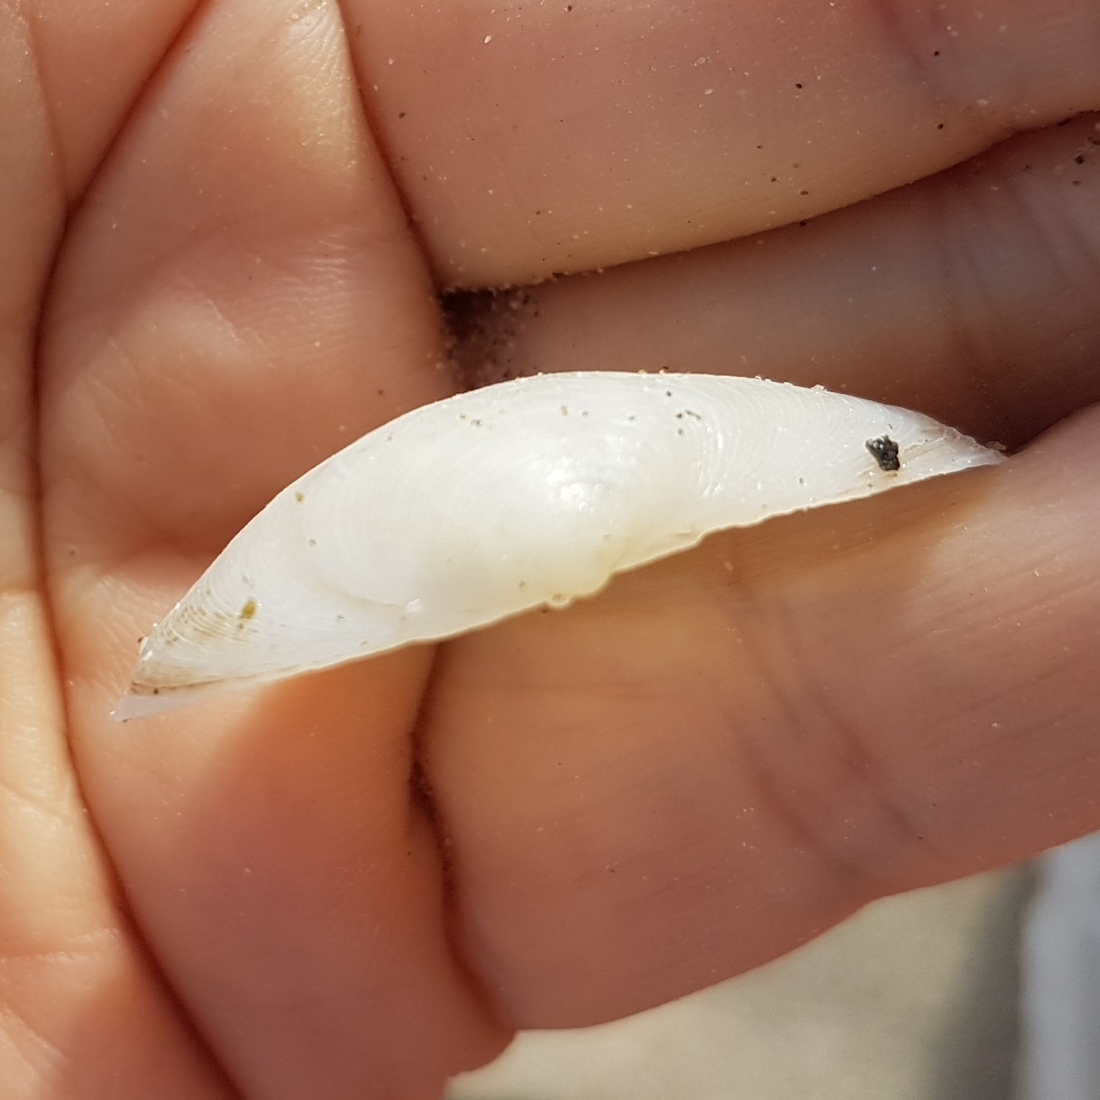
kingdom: Animalia
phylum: Mollusca
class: Bivalvia
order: Cardiida
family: Tellinidae
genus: Gastrana
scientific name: Gastrana fragilis
